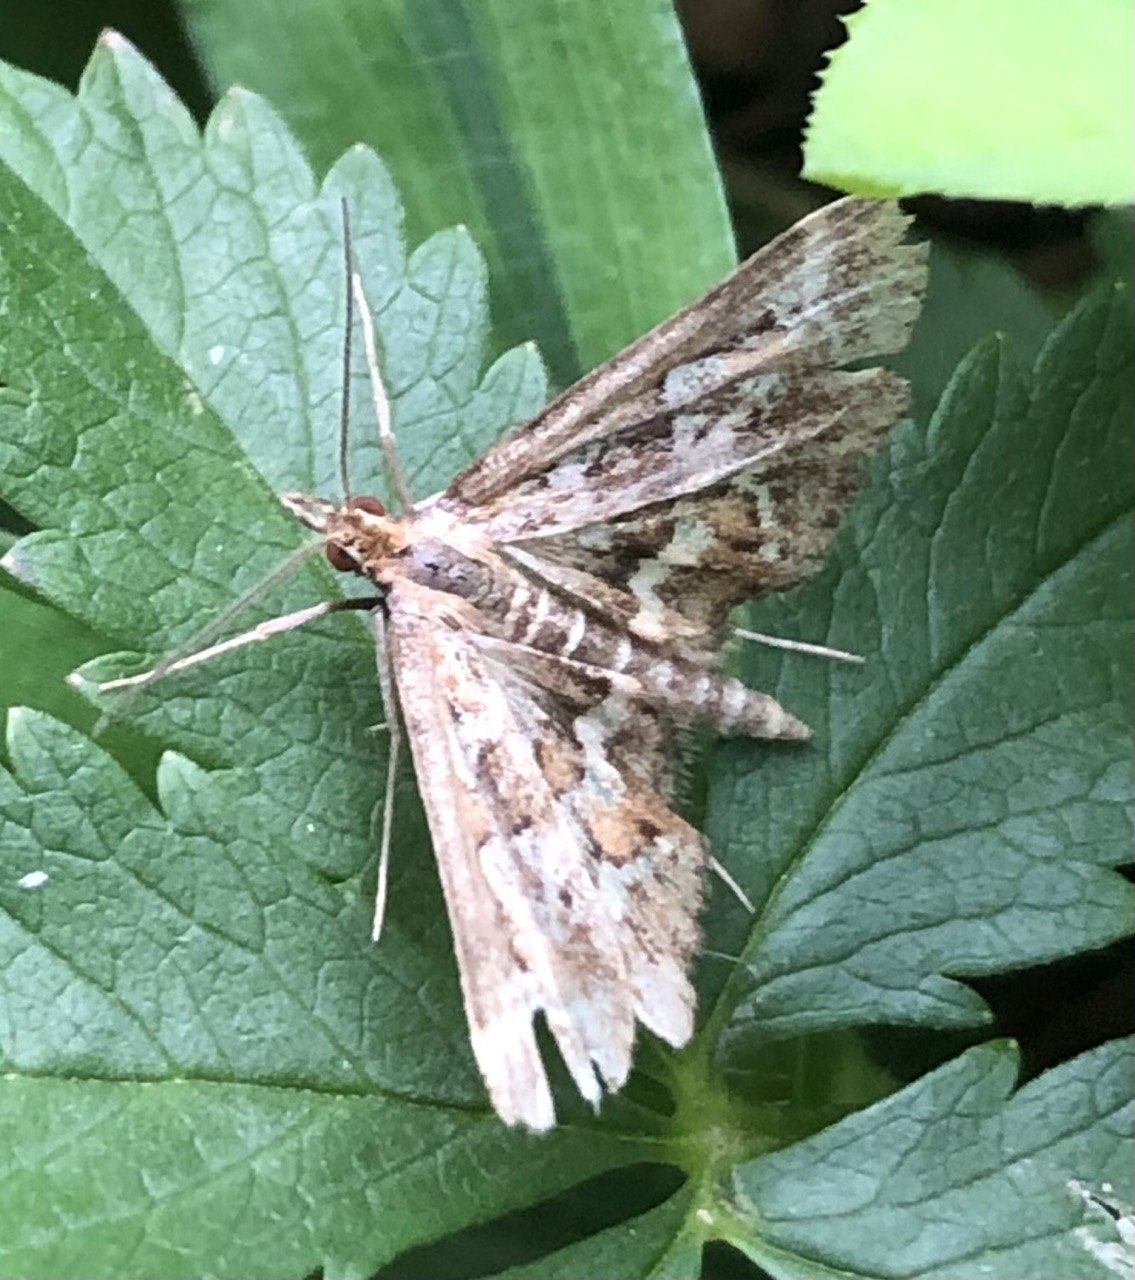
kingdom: Animalia
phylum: Arthropoda
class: Insecta
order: Lepidoptera
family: Crambidae
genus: Diasemia
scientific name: Diasemia reticularis
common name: Lettered china-mark
